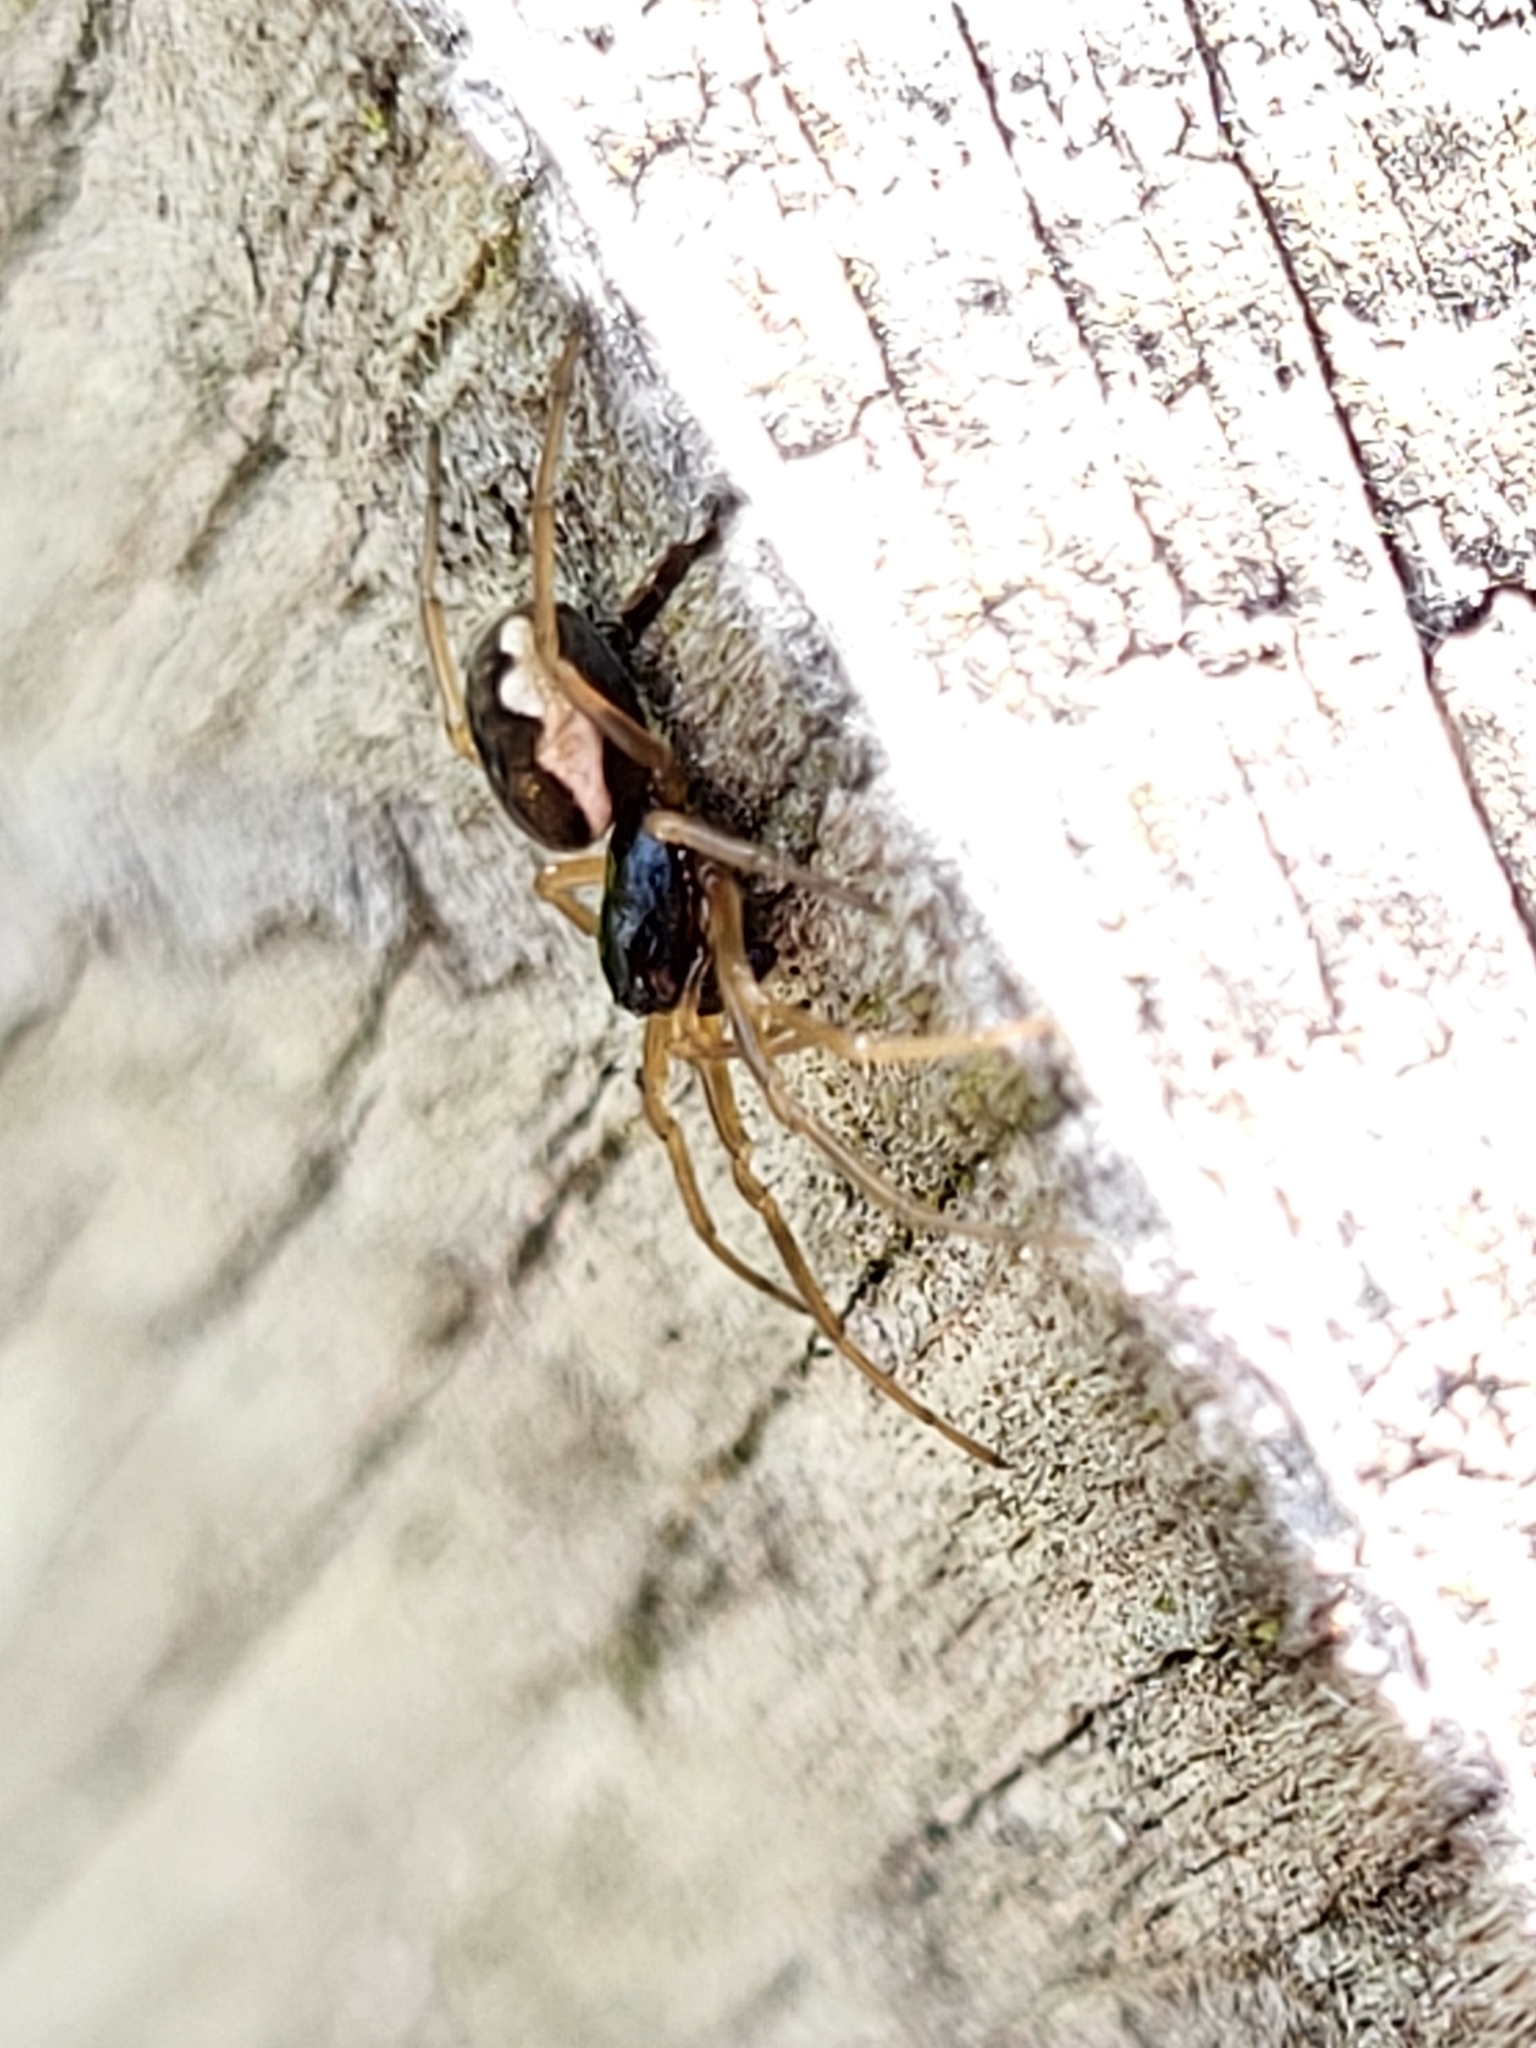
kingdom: Animalia
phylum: Arthropoda
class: Arachnida
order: Araneae
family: Tetragnathidae
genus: Pachygnatha
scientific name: Pachygnatha degeeri
